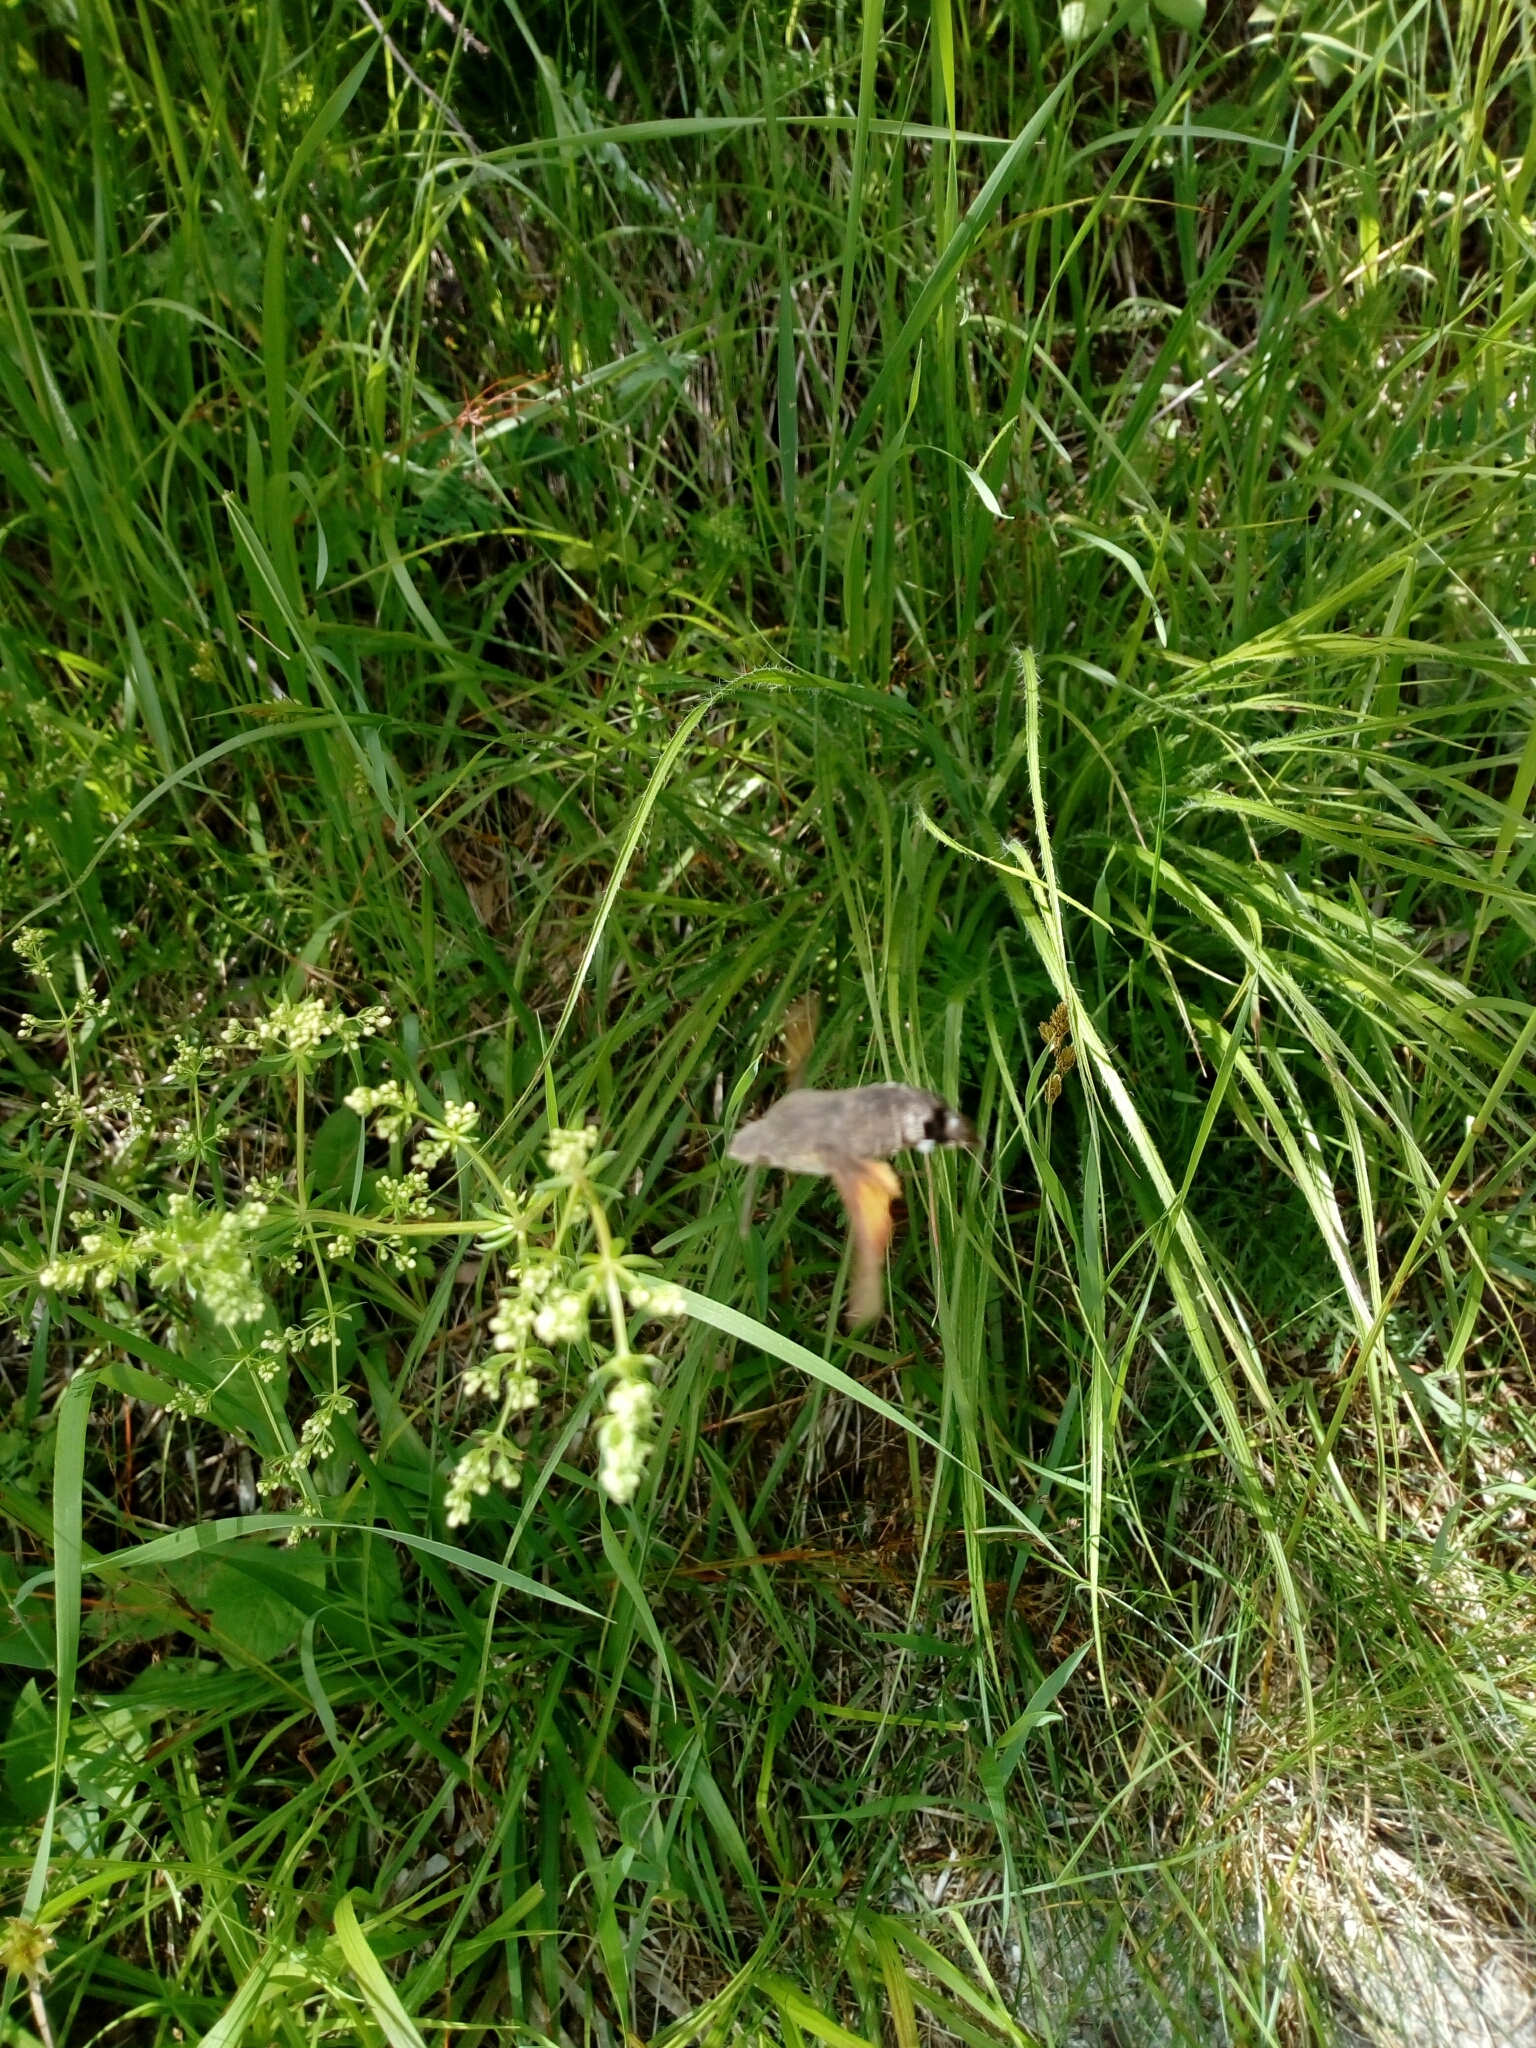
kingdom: Animalia
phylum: Arthropoda
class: Insecta
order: Lepidoptera
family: Sphingidae
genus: Macroglossum
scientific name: Macroglossum stellatarum
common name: Humming-bird hawk-moth
